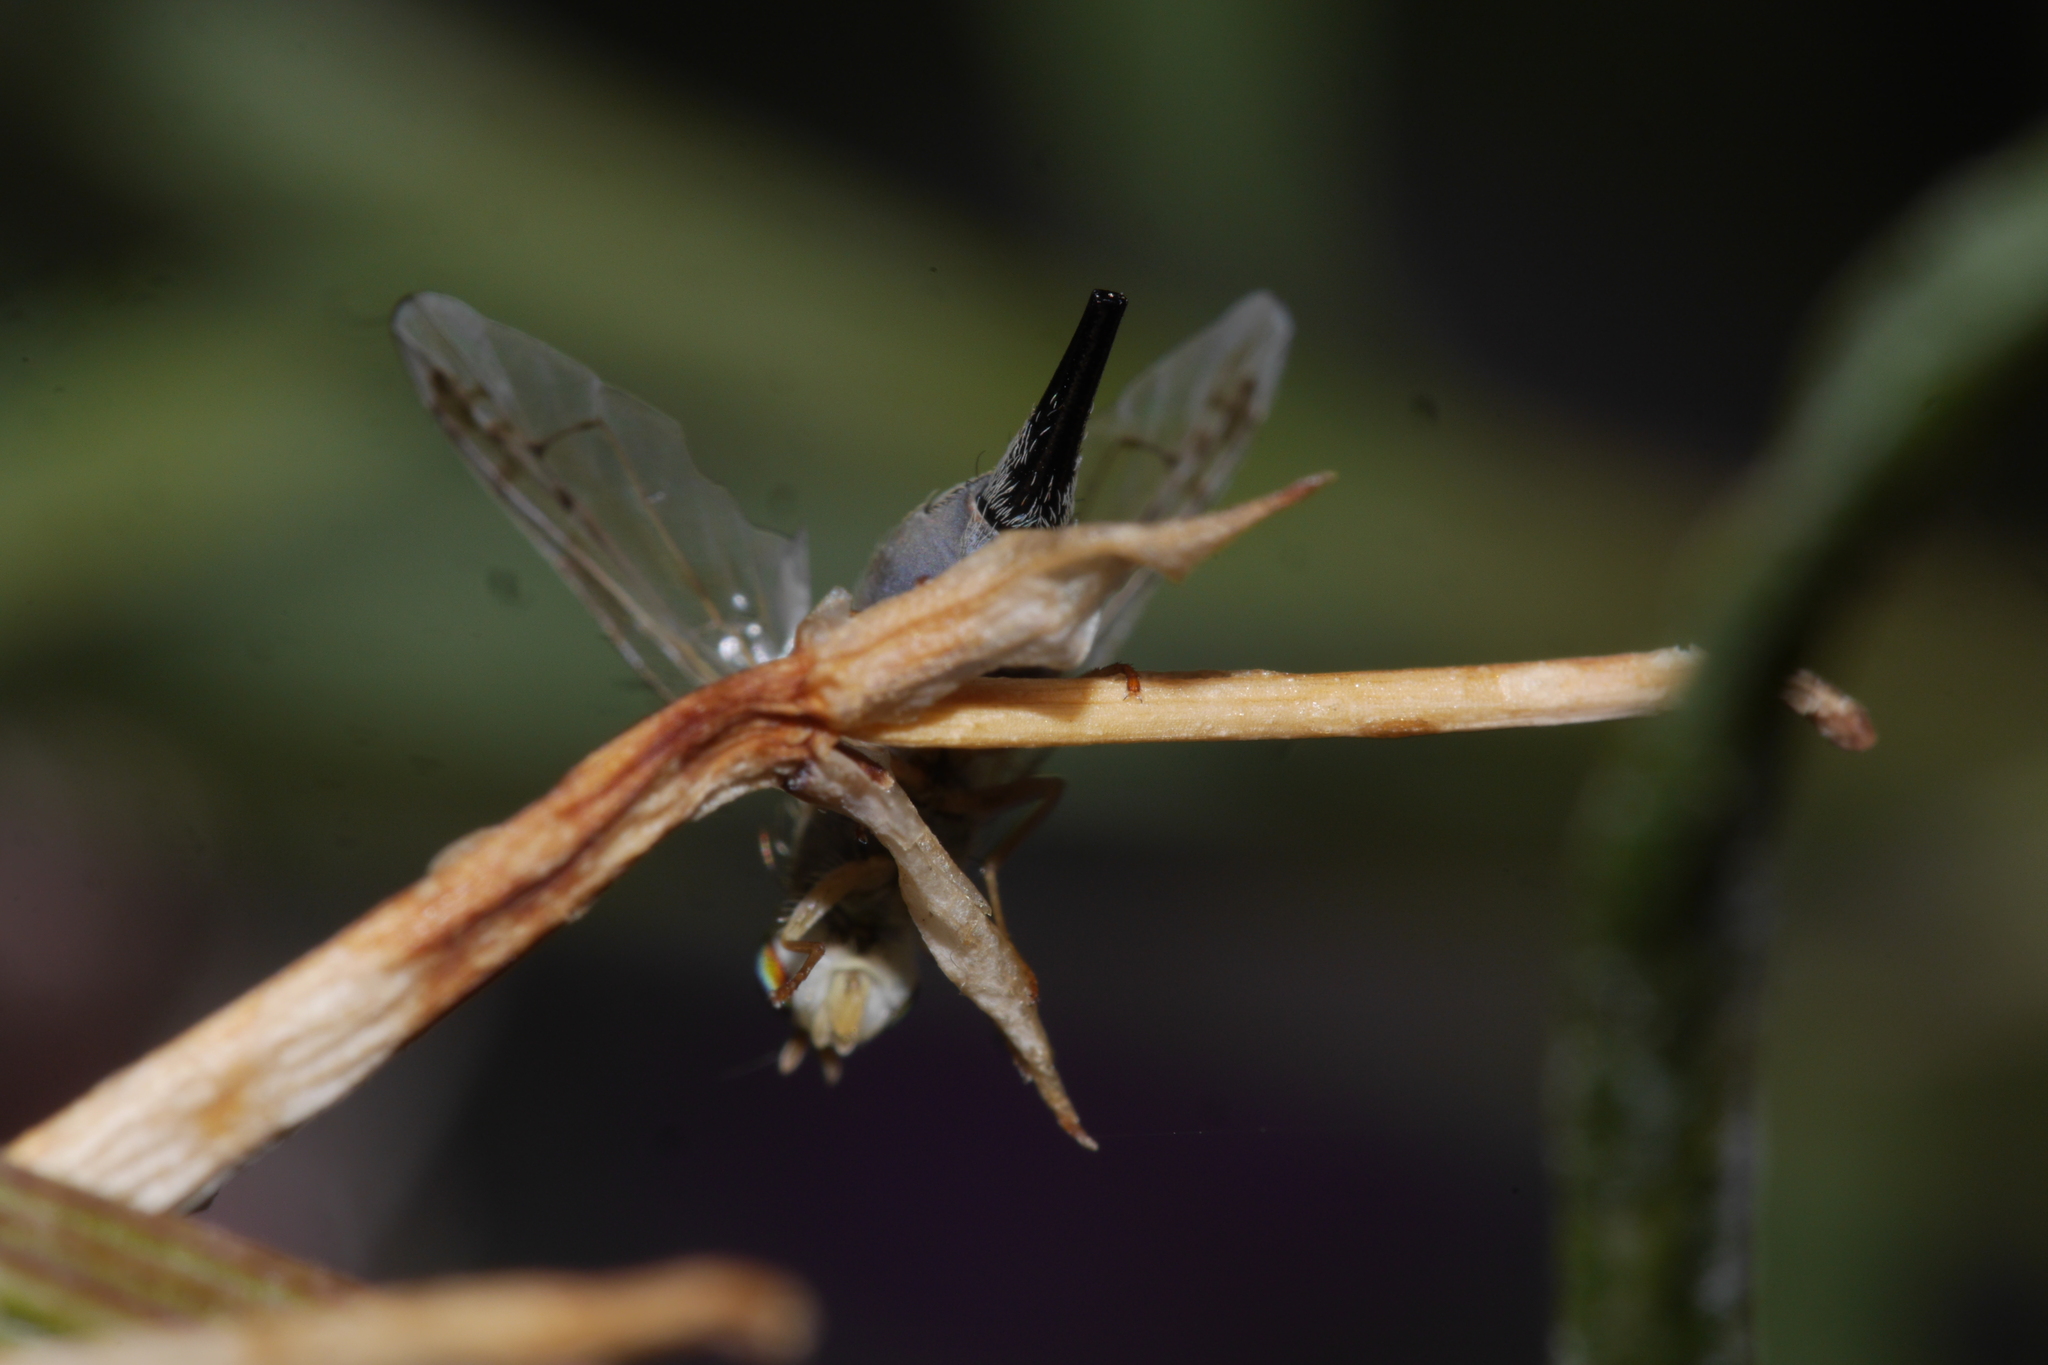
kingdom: Animalia
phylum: Arthropoda
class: Insecta
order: Diptera
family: Tephritidae
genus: Acanthiophilus
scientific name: Acanthiophilus helianthi
